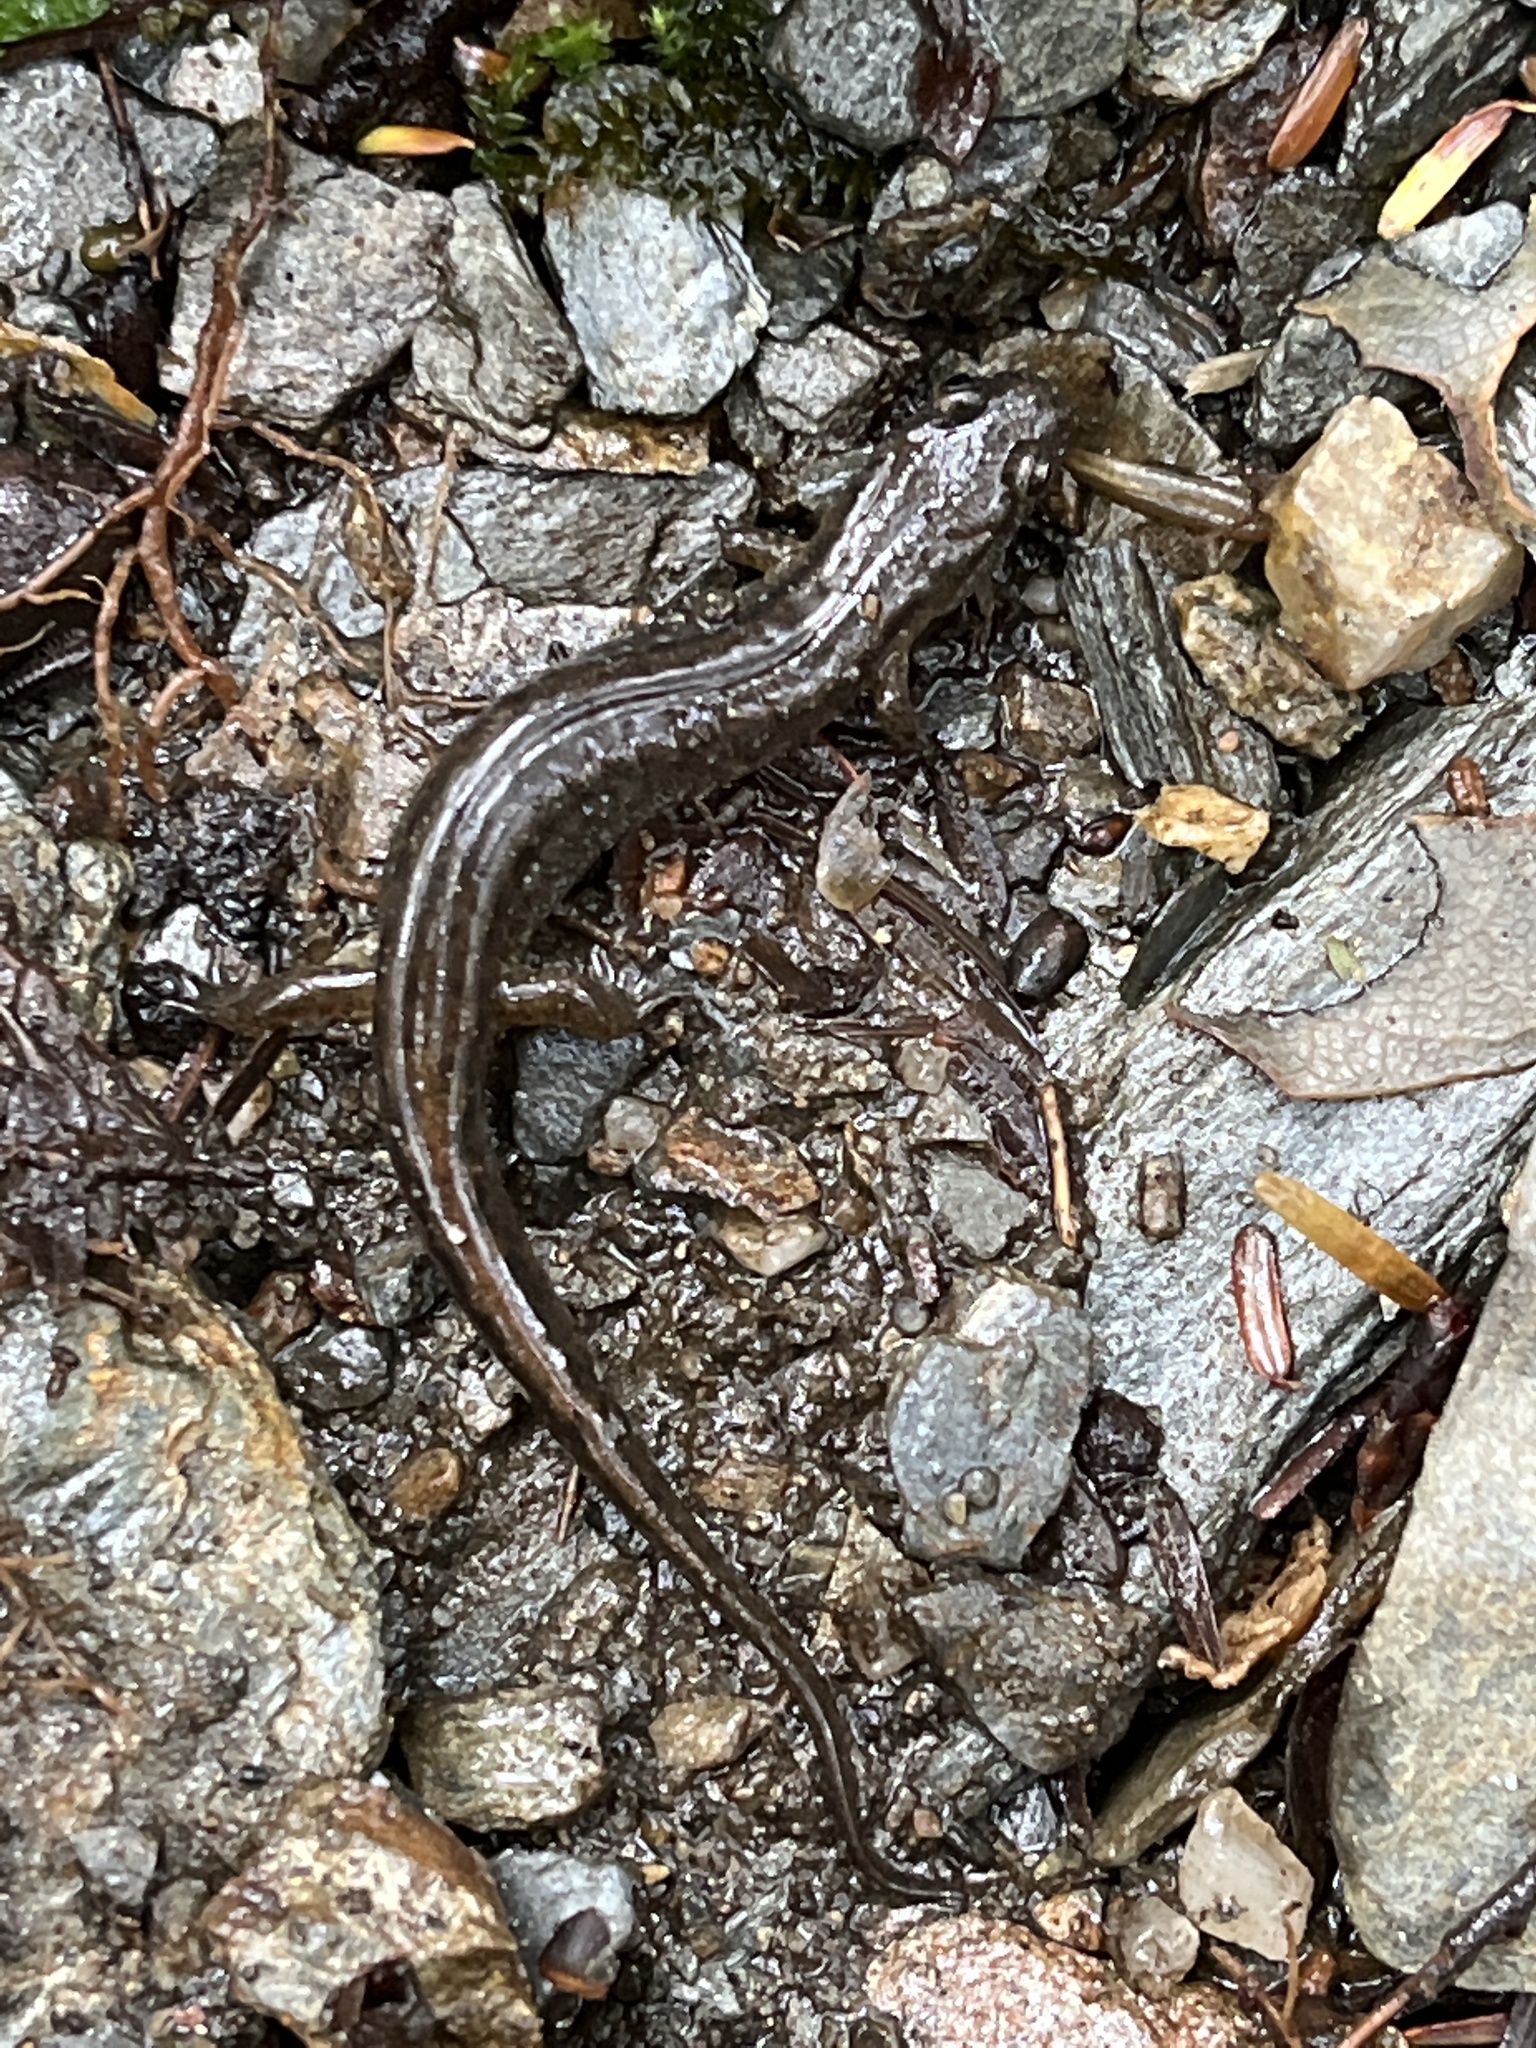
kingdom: Animalia
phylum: Chordata
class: Amphibia
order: Caudata
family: Plethodontidae
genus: Desmognathus
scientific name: Desmognathus fuscus
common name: Northern dusky salamander
